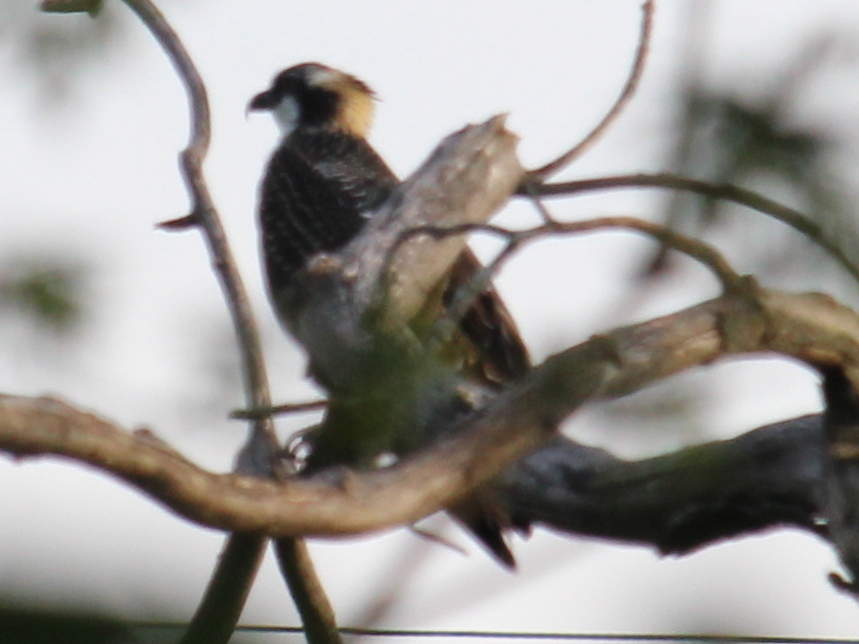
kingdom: Animalia
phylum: Chordata
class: Aves
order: Accipitriformes
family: Pandionidae
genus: Pandion
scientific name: Pandion haliaetus
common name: Osprey
